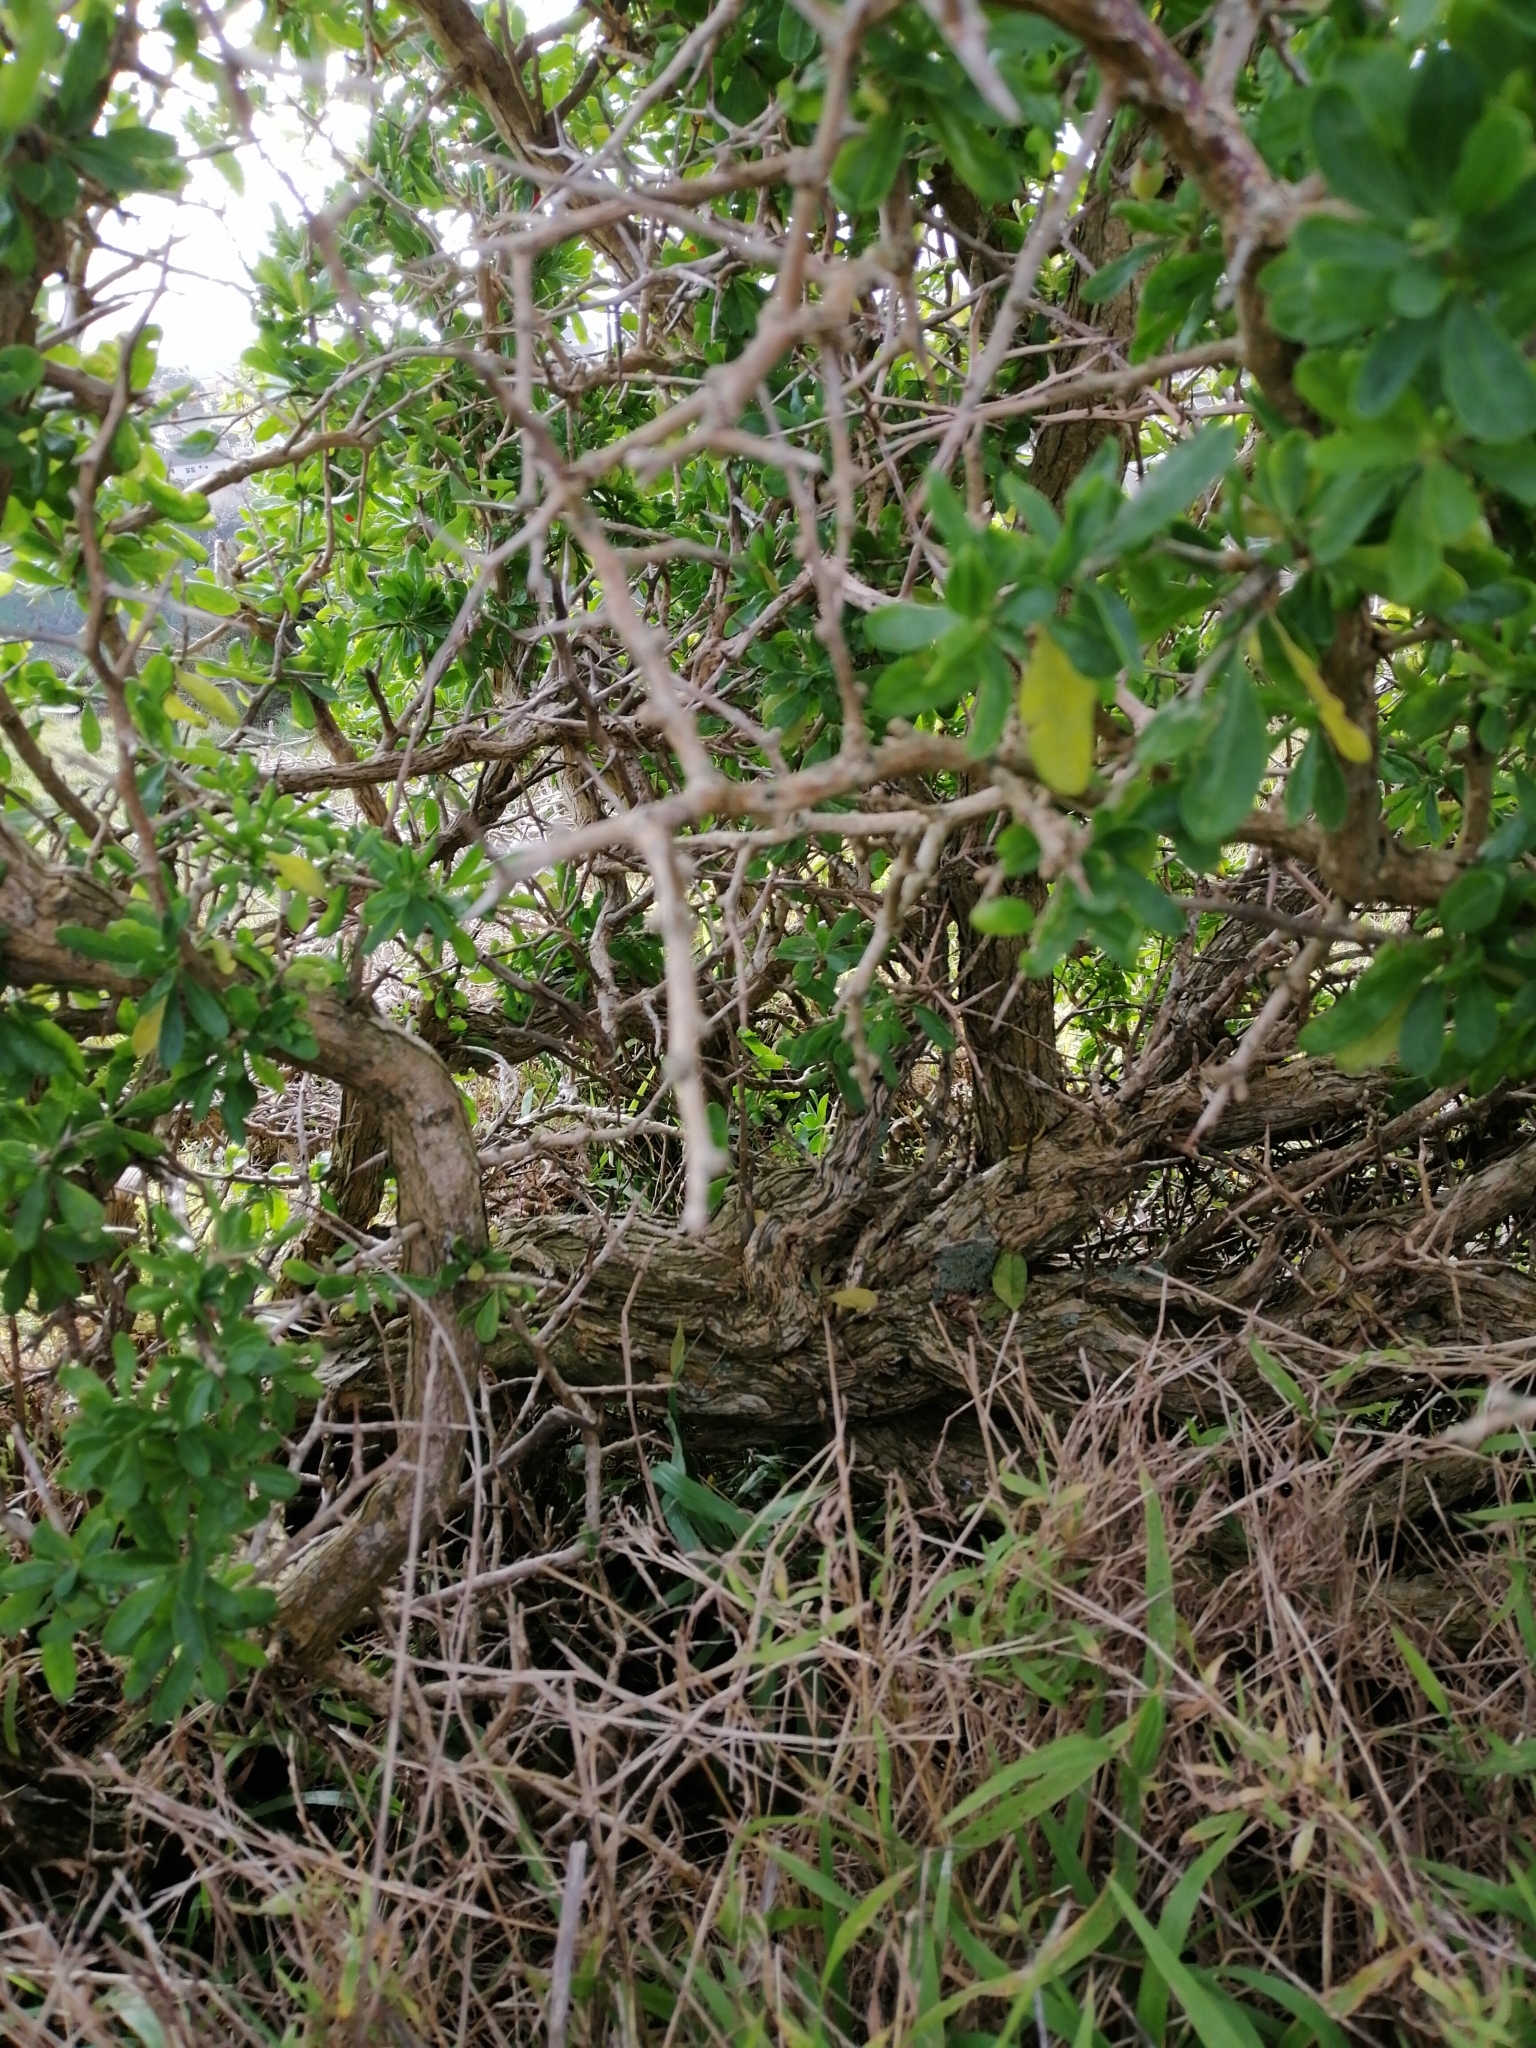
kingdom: Plantae
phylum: Tracheophyta
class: Magnoliopsida
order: Solanales
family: Solanaceae
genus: Lycium
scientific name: Lycium ferocissimum
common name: African boxthorn
